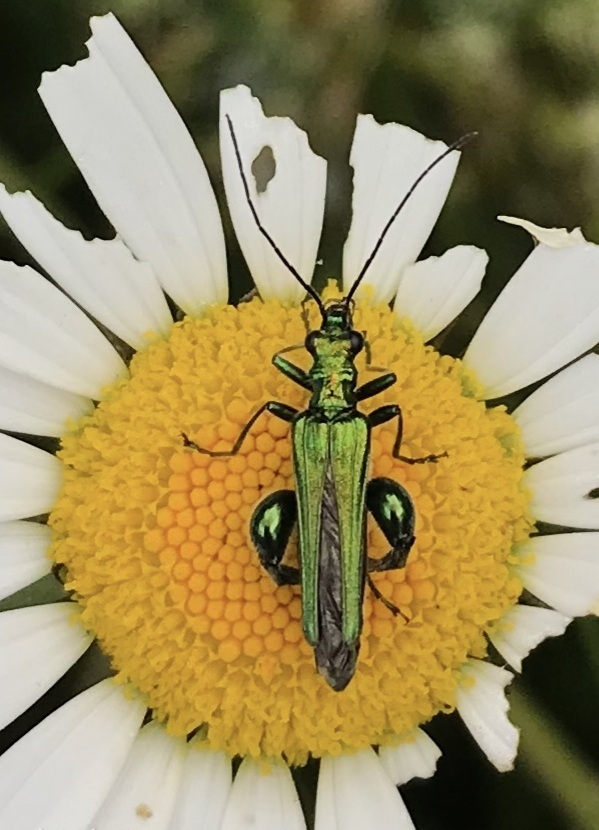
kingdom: Animalia
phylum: Arthropoda
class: Insecta
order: Coleoptera
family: Oedemeridae
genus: Oedemera
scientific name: Oedemera nobilis
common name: Swollen-thighed beetle
